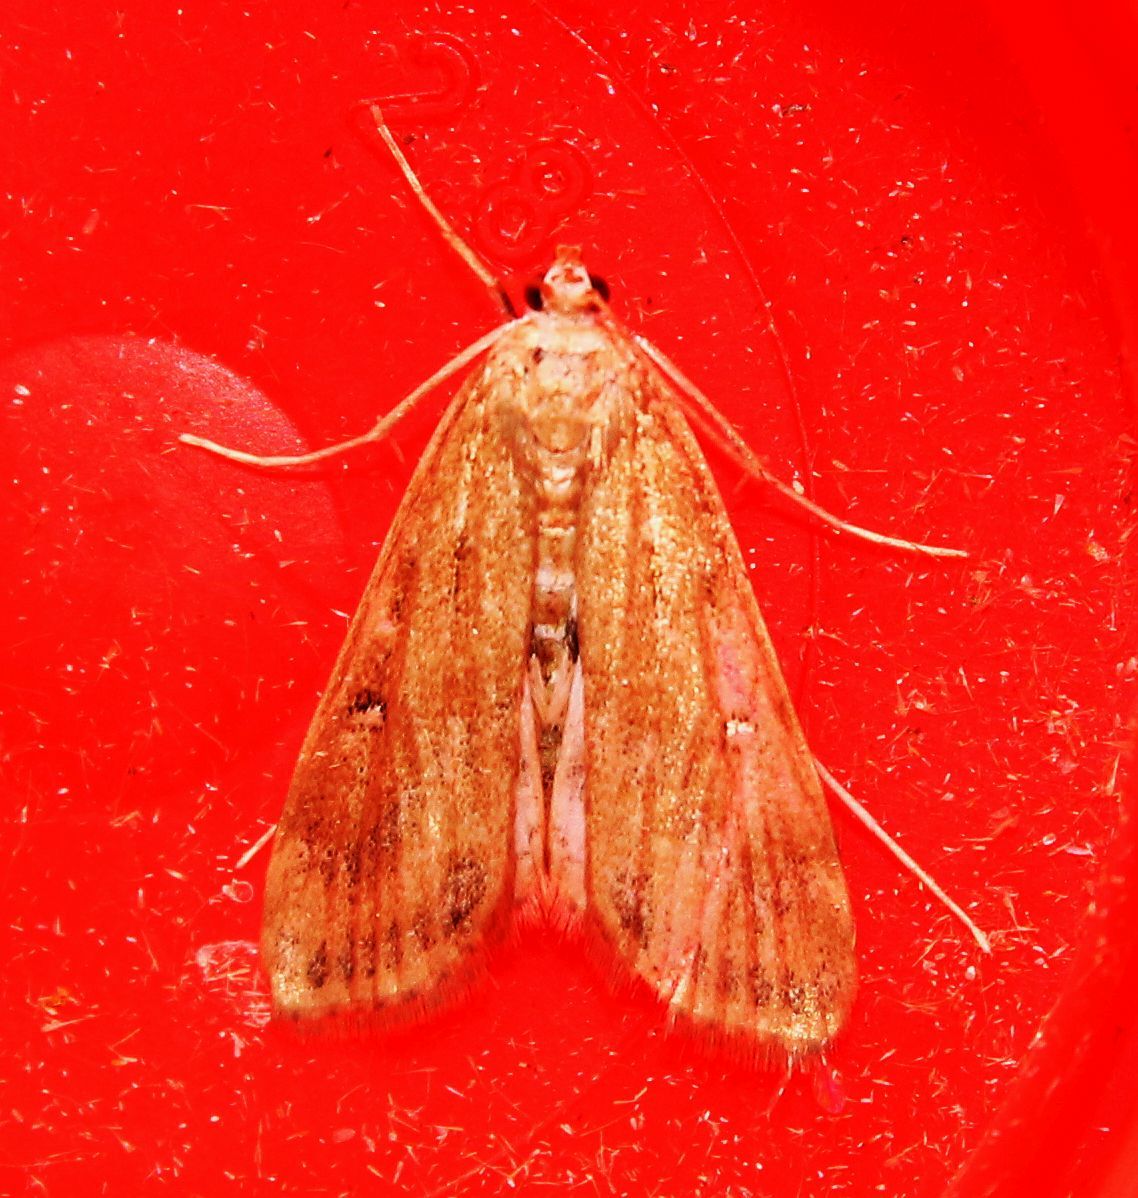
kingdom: Animalia
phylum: Arthropoda
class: Insecta
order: Lepidoptera
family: Crambidae
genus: Parapoynx
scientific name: Parapoynx stratiotata
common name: Ringed china-mark
